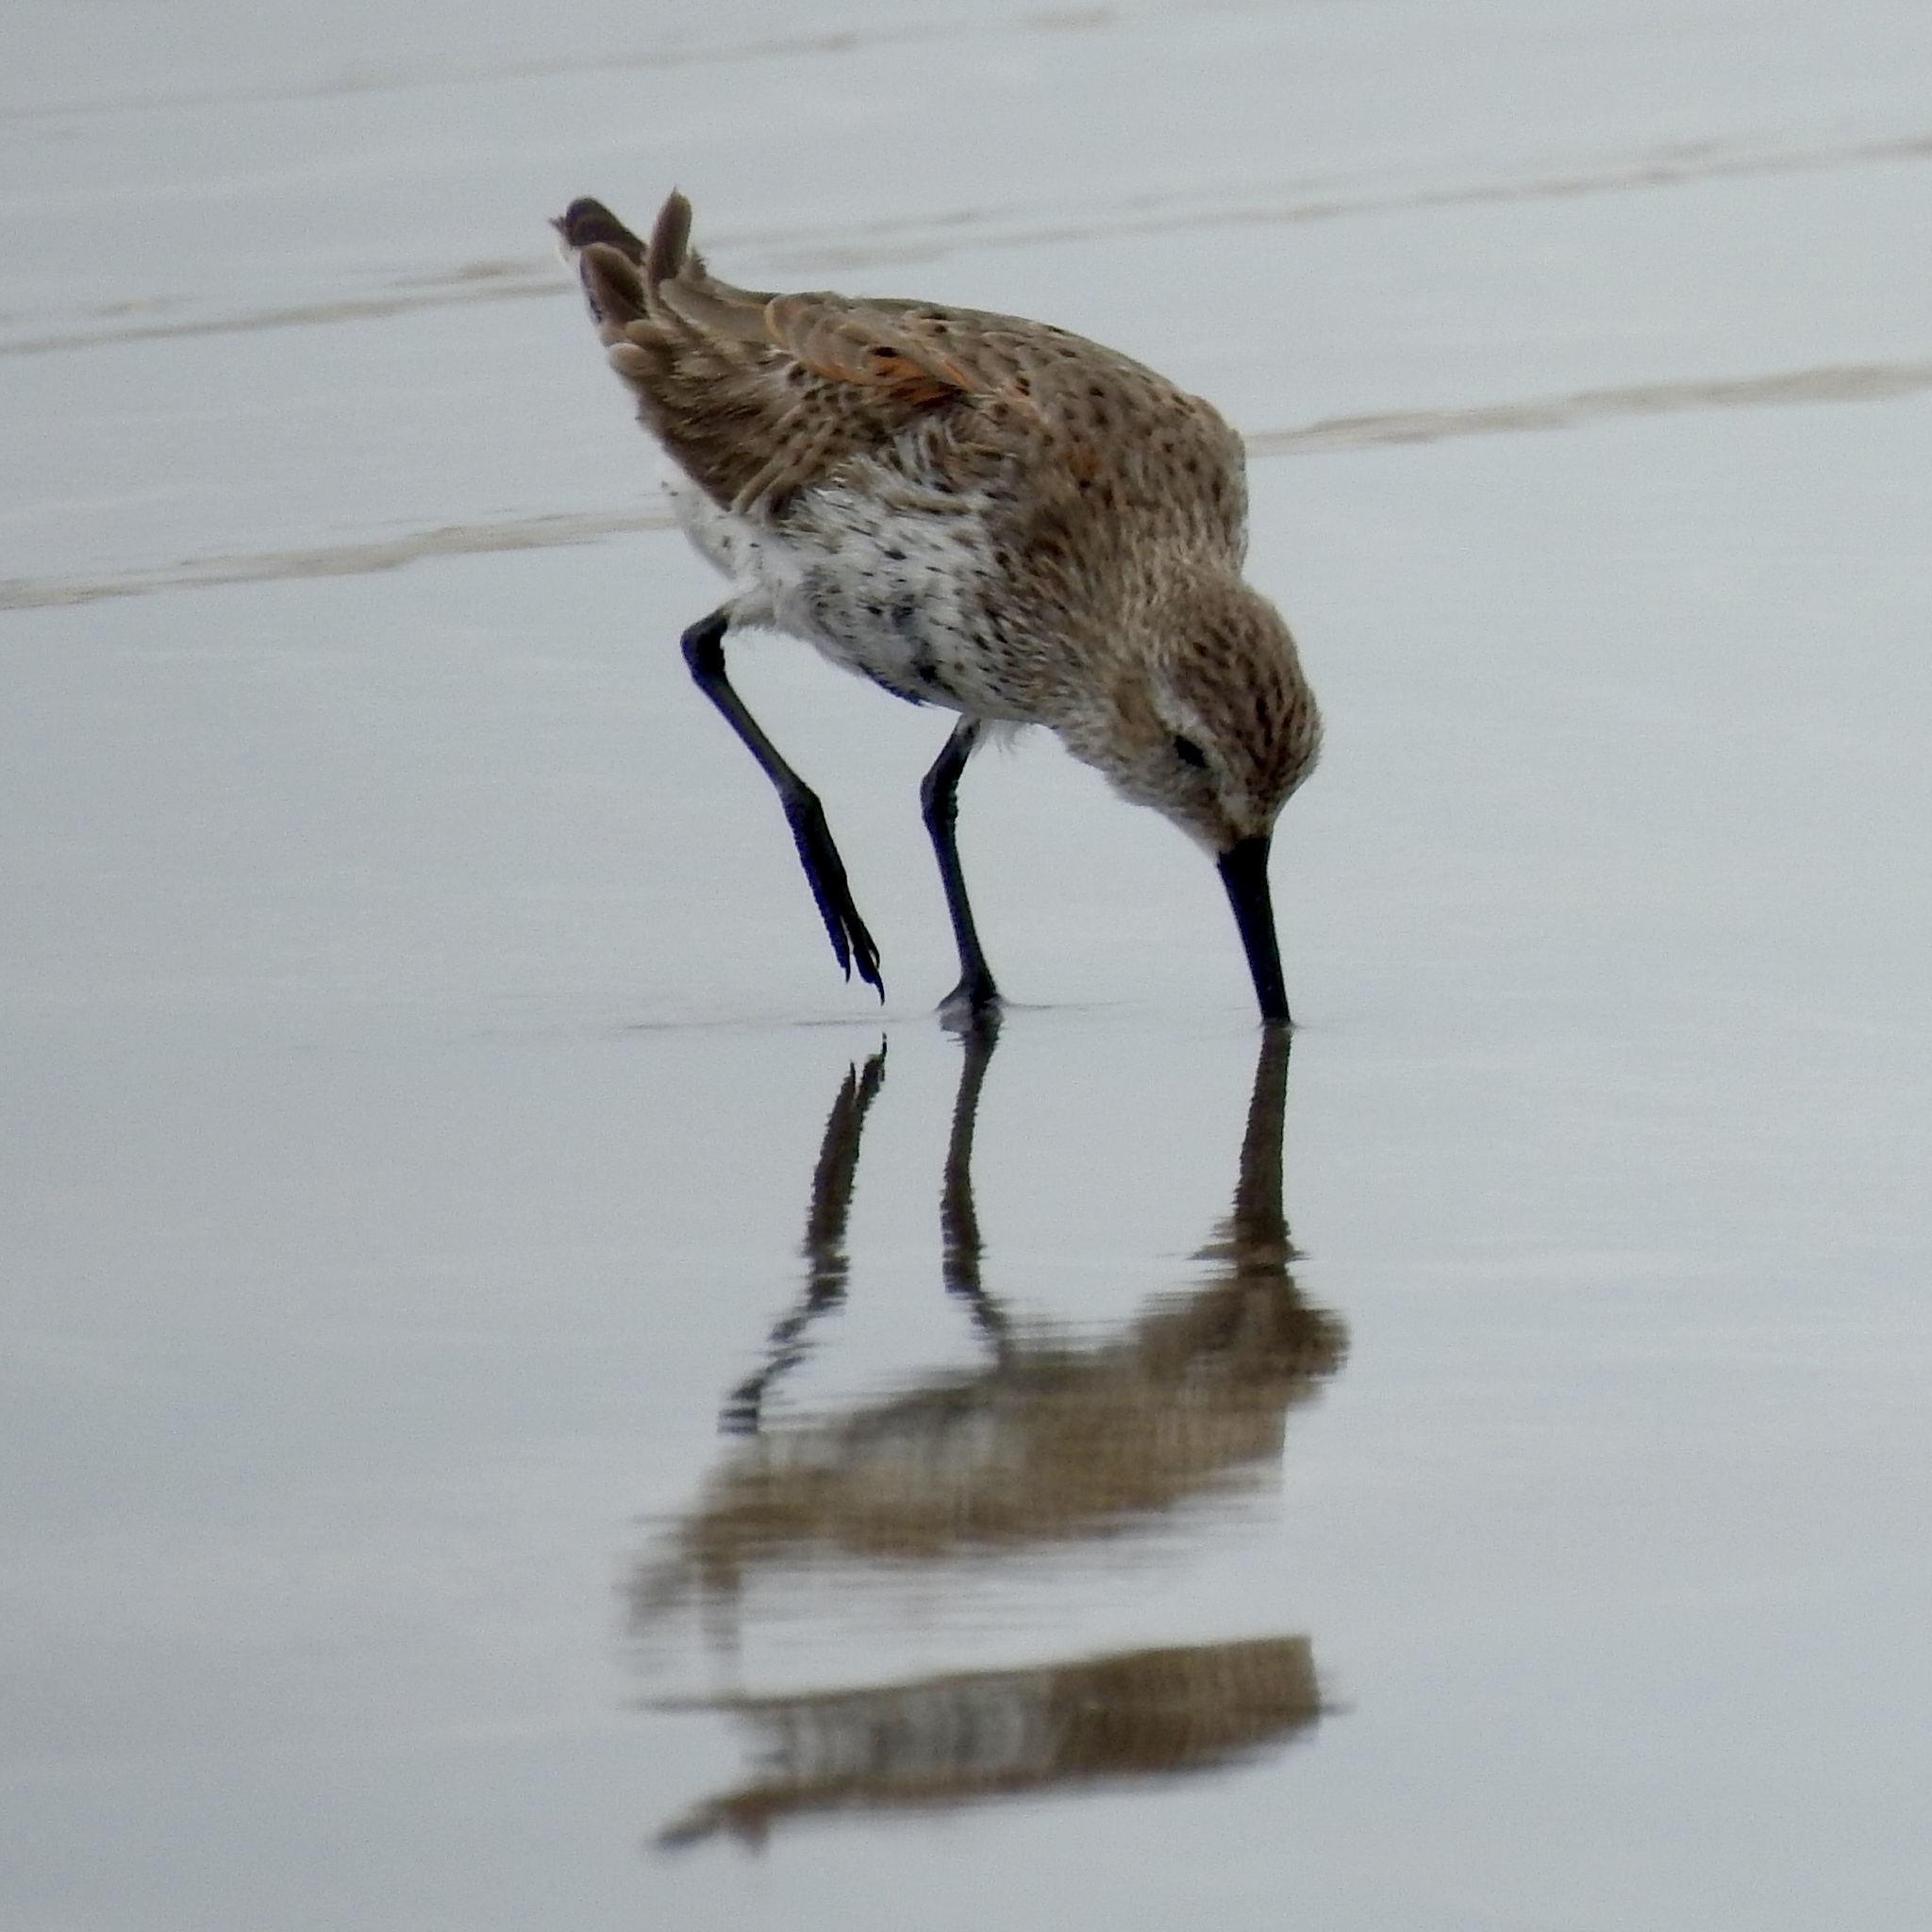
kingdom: Animalia
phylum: Chordata
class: Aves
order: Charadriiformes
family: Scolopacidae
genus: Calidris
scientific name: Calidris alpina
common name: Dunlin
